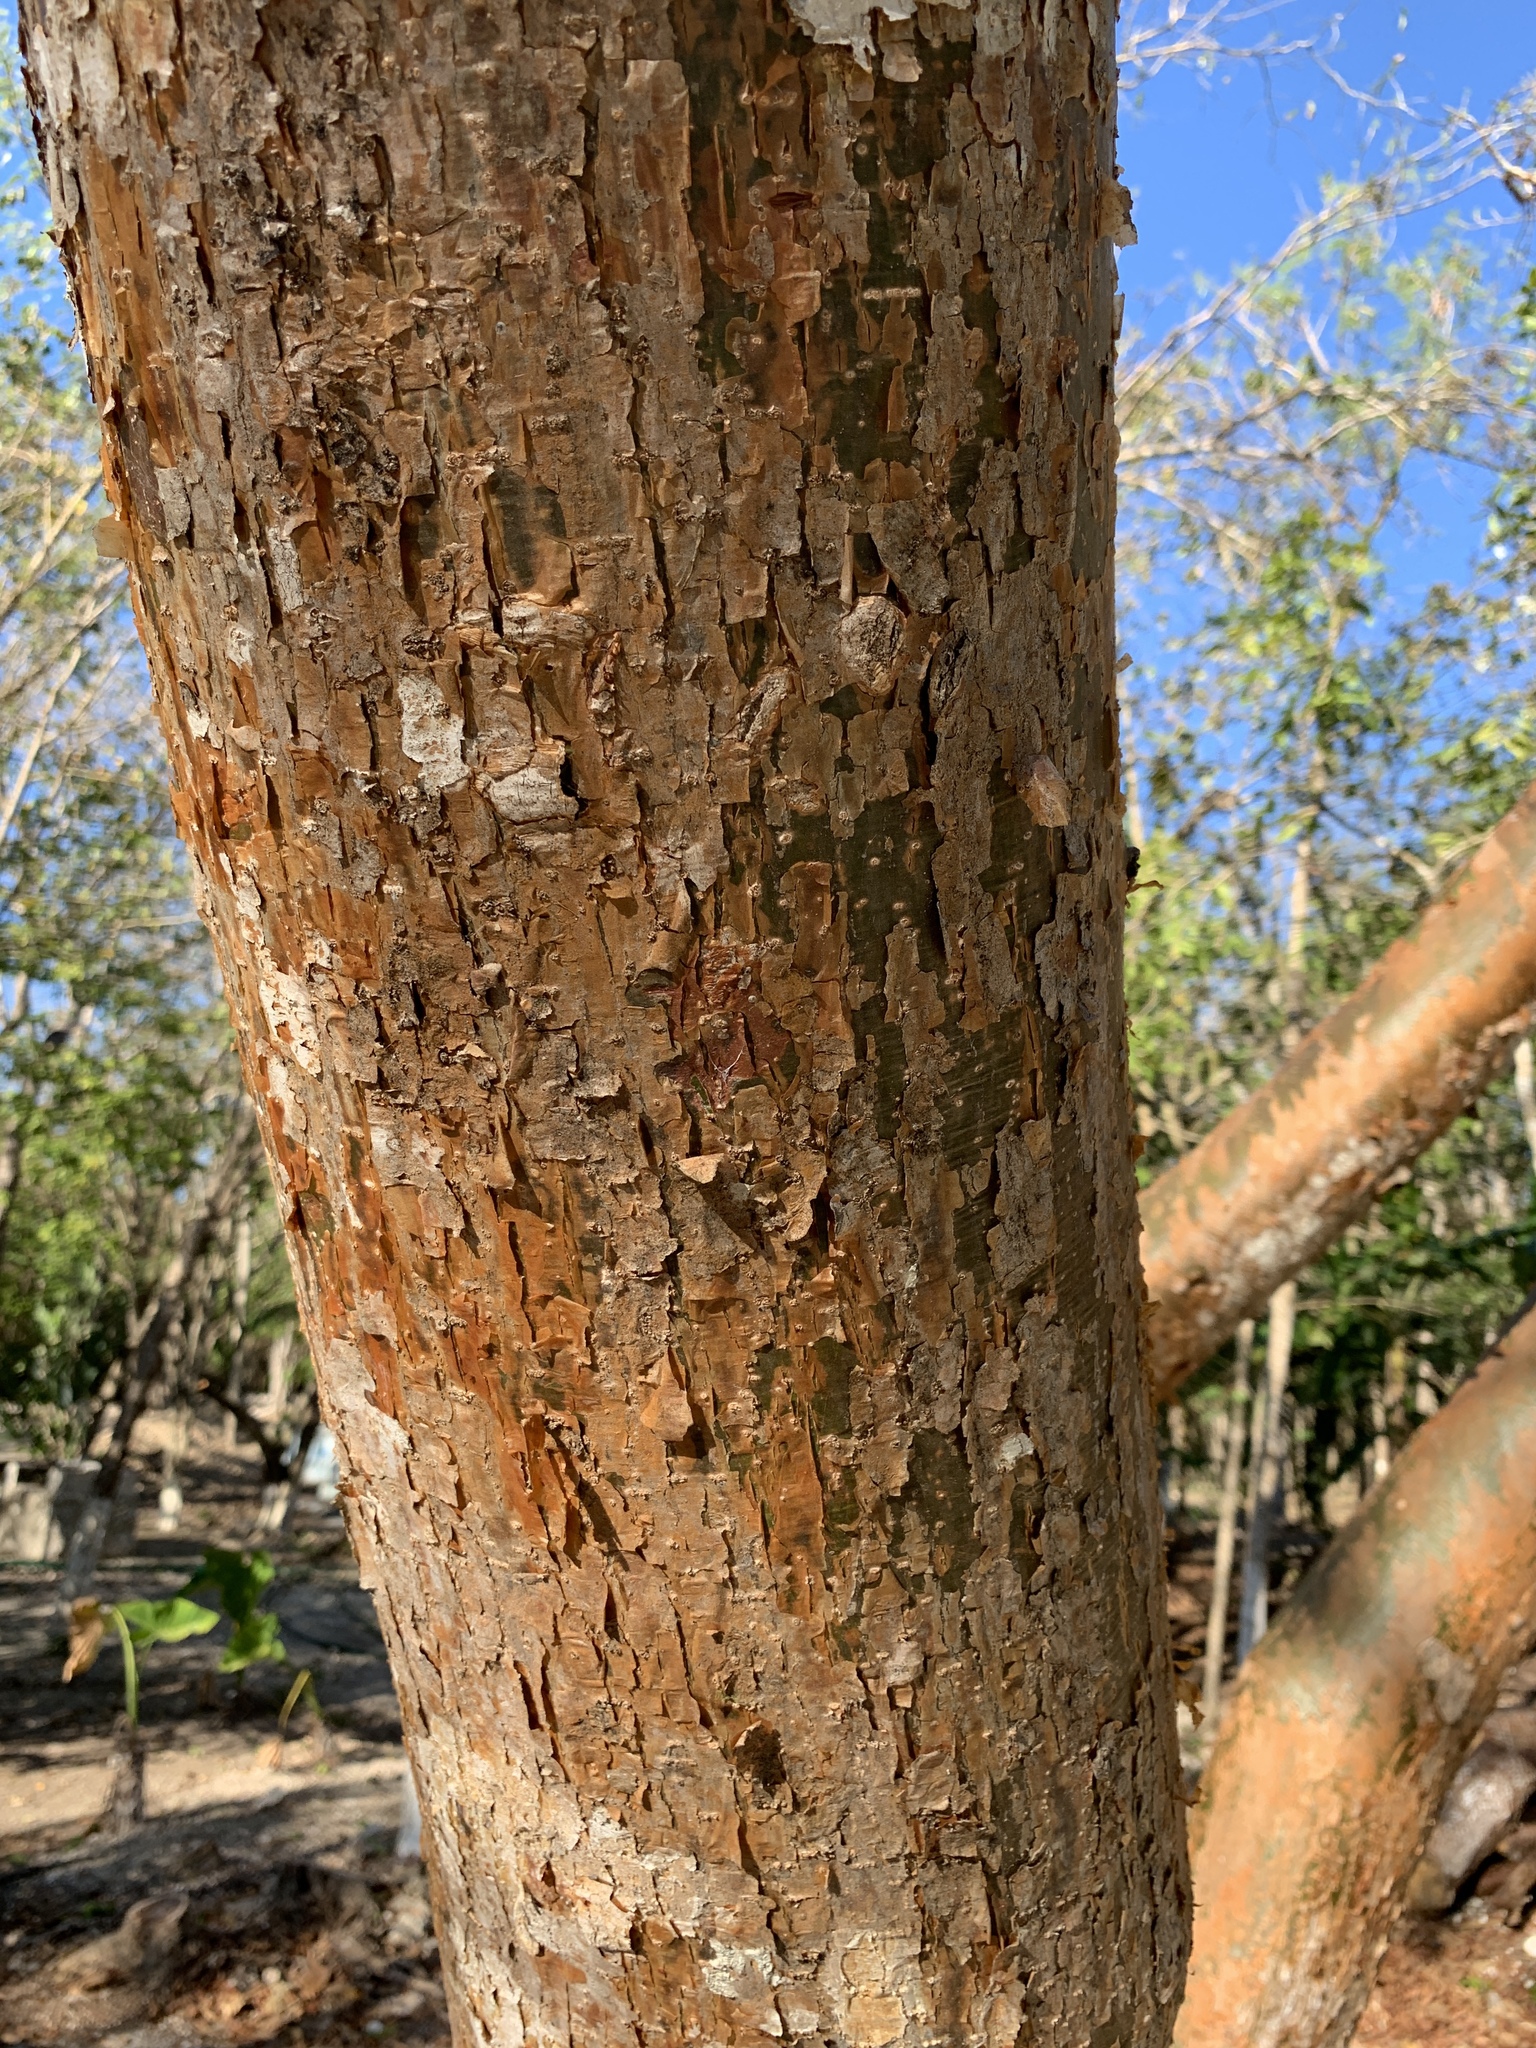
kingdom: Plantae
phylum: Tracheophyta
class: Magnoliopsida
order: Sapindales
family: Burseraceae
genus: Bursera
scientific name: Bursera simaruba
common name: Turpentine tree
